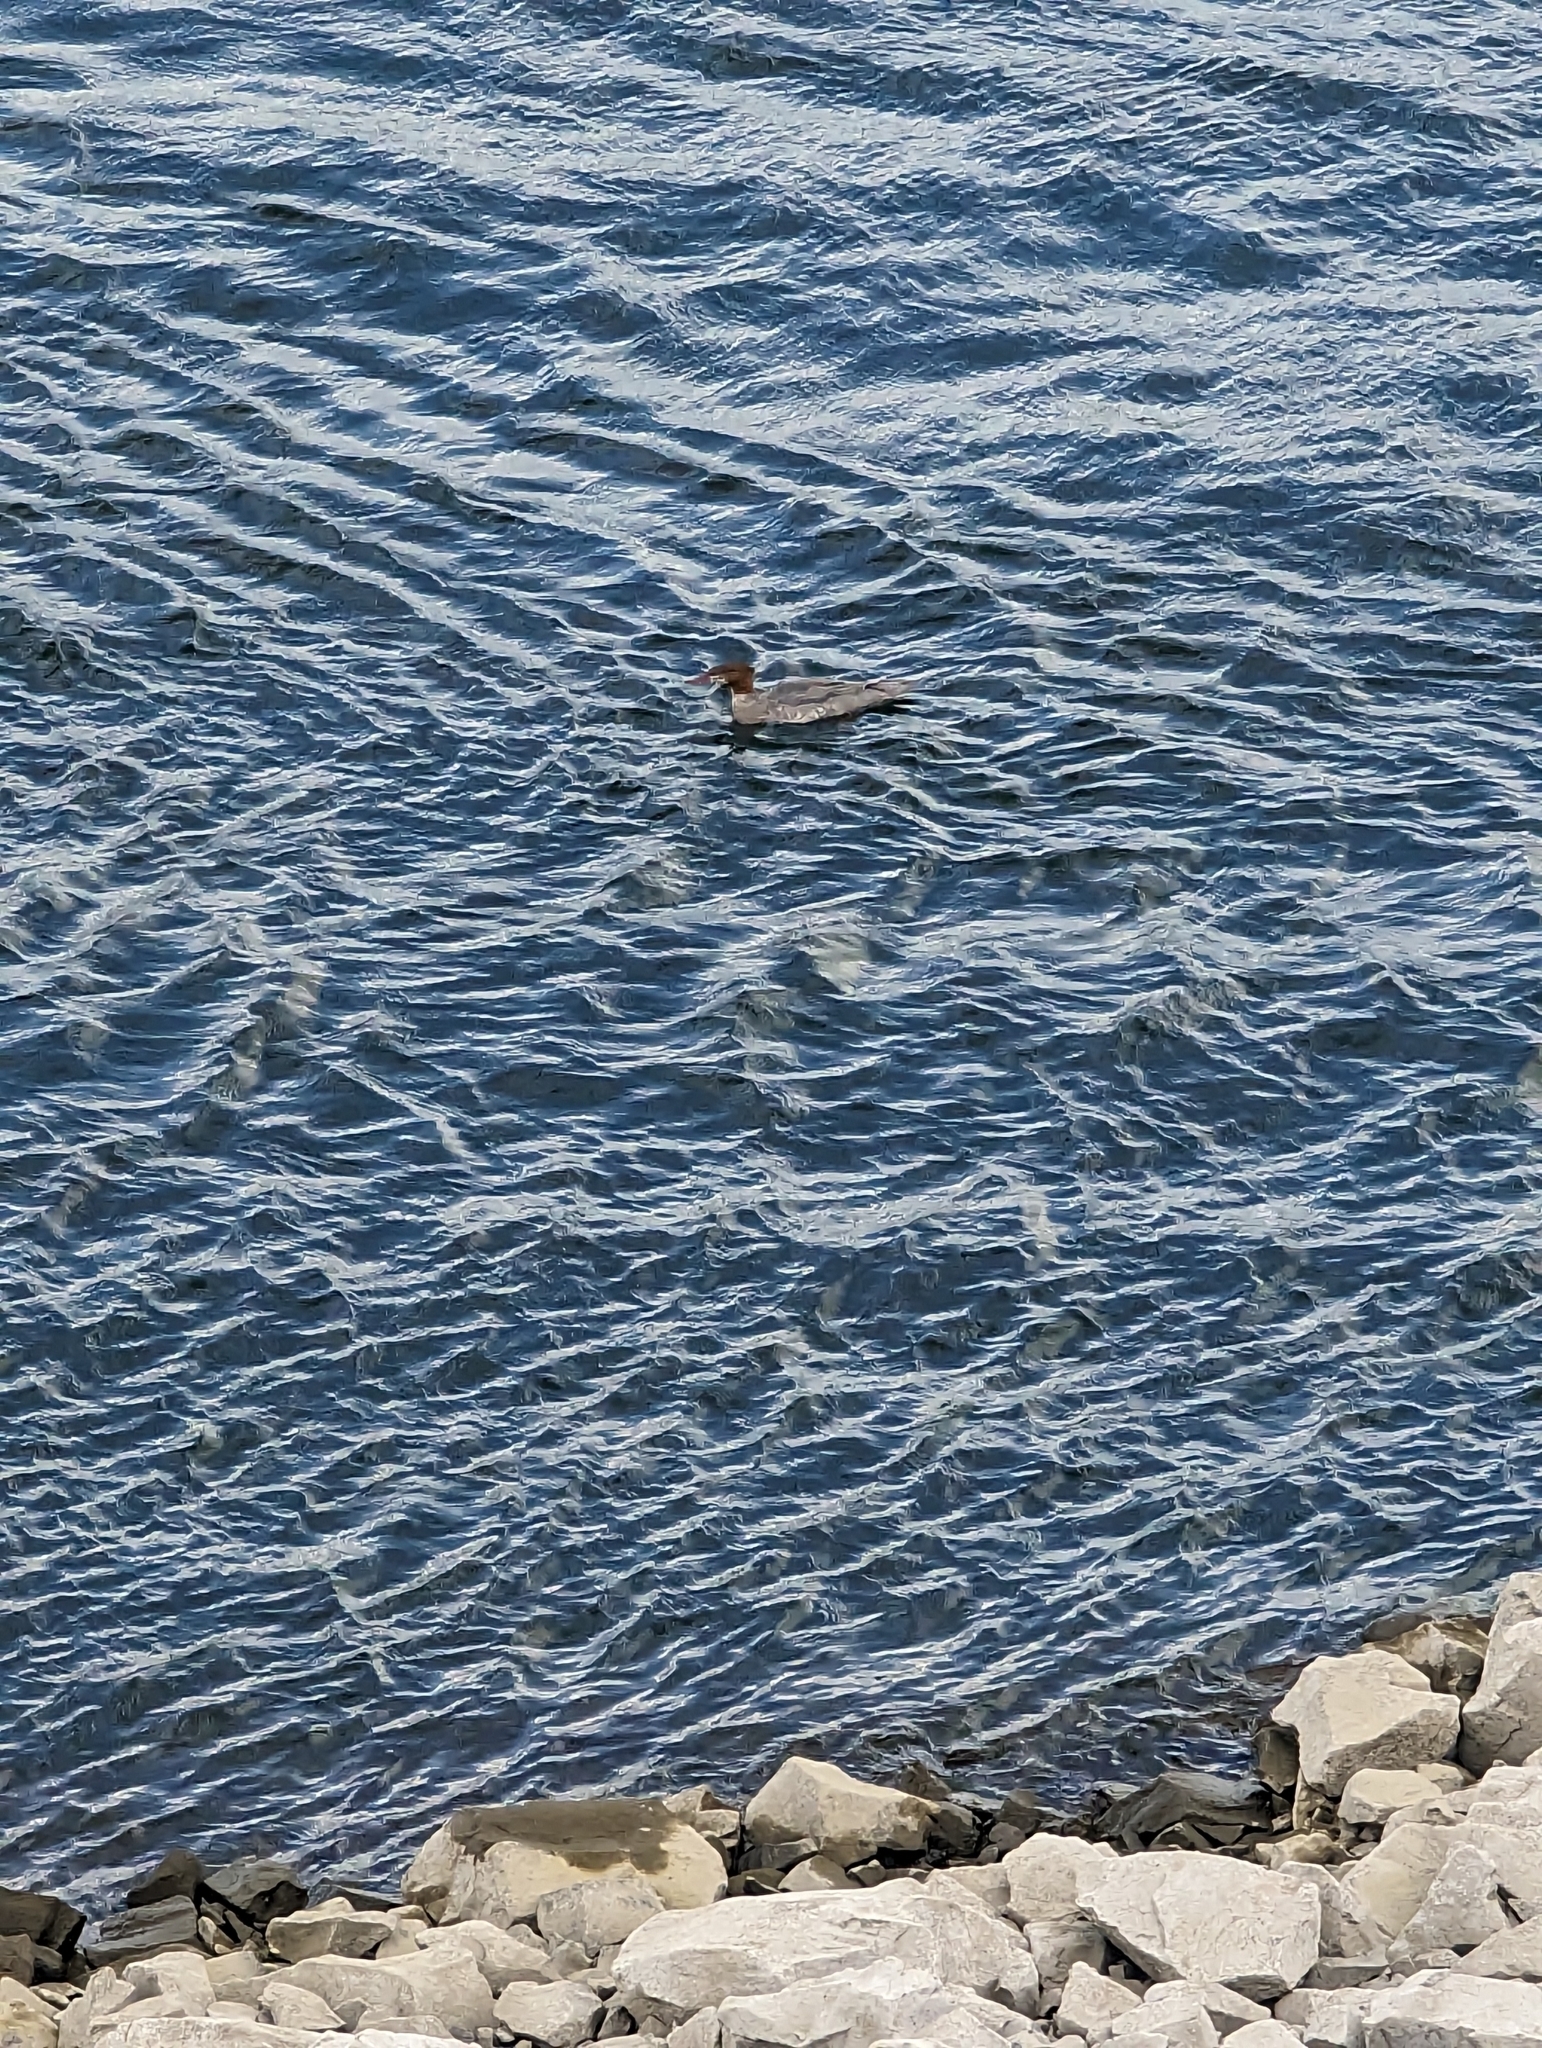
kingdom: Animalia
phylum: Chordata
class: Aves
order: Anseriformes
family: Anatidae
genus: Mergus
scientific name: Mergus merganser
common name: Common merganser
